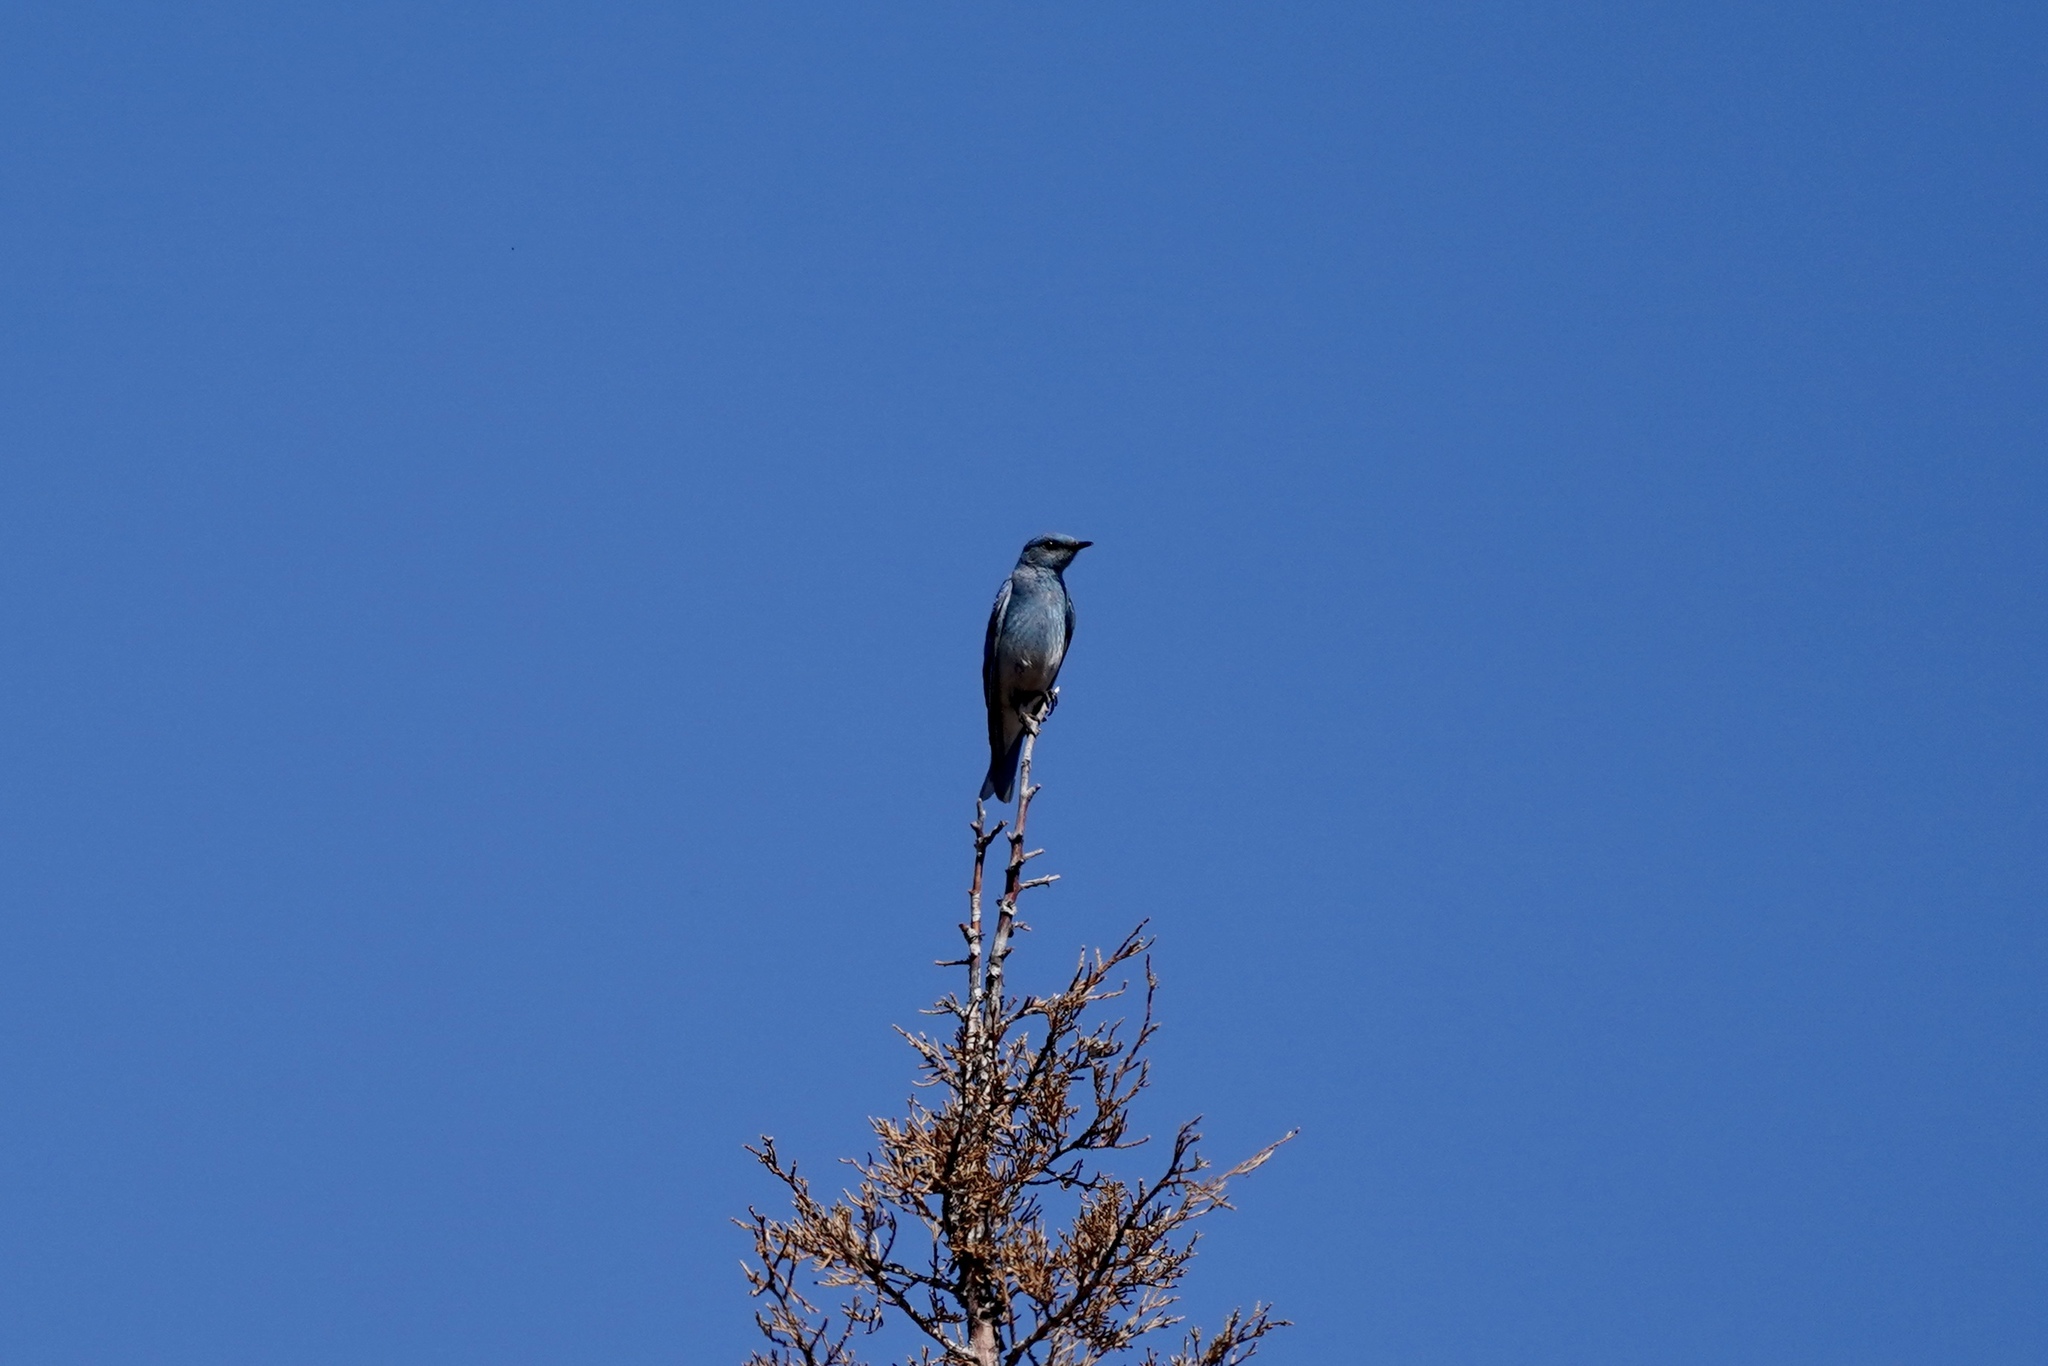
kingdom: Animalia
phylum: Chordata
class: Aves
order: Passeriformes
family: Turdidae
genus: Sialia
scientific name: Sialia currucoides
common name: Mountain bluebird
